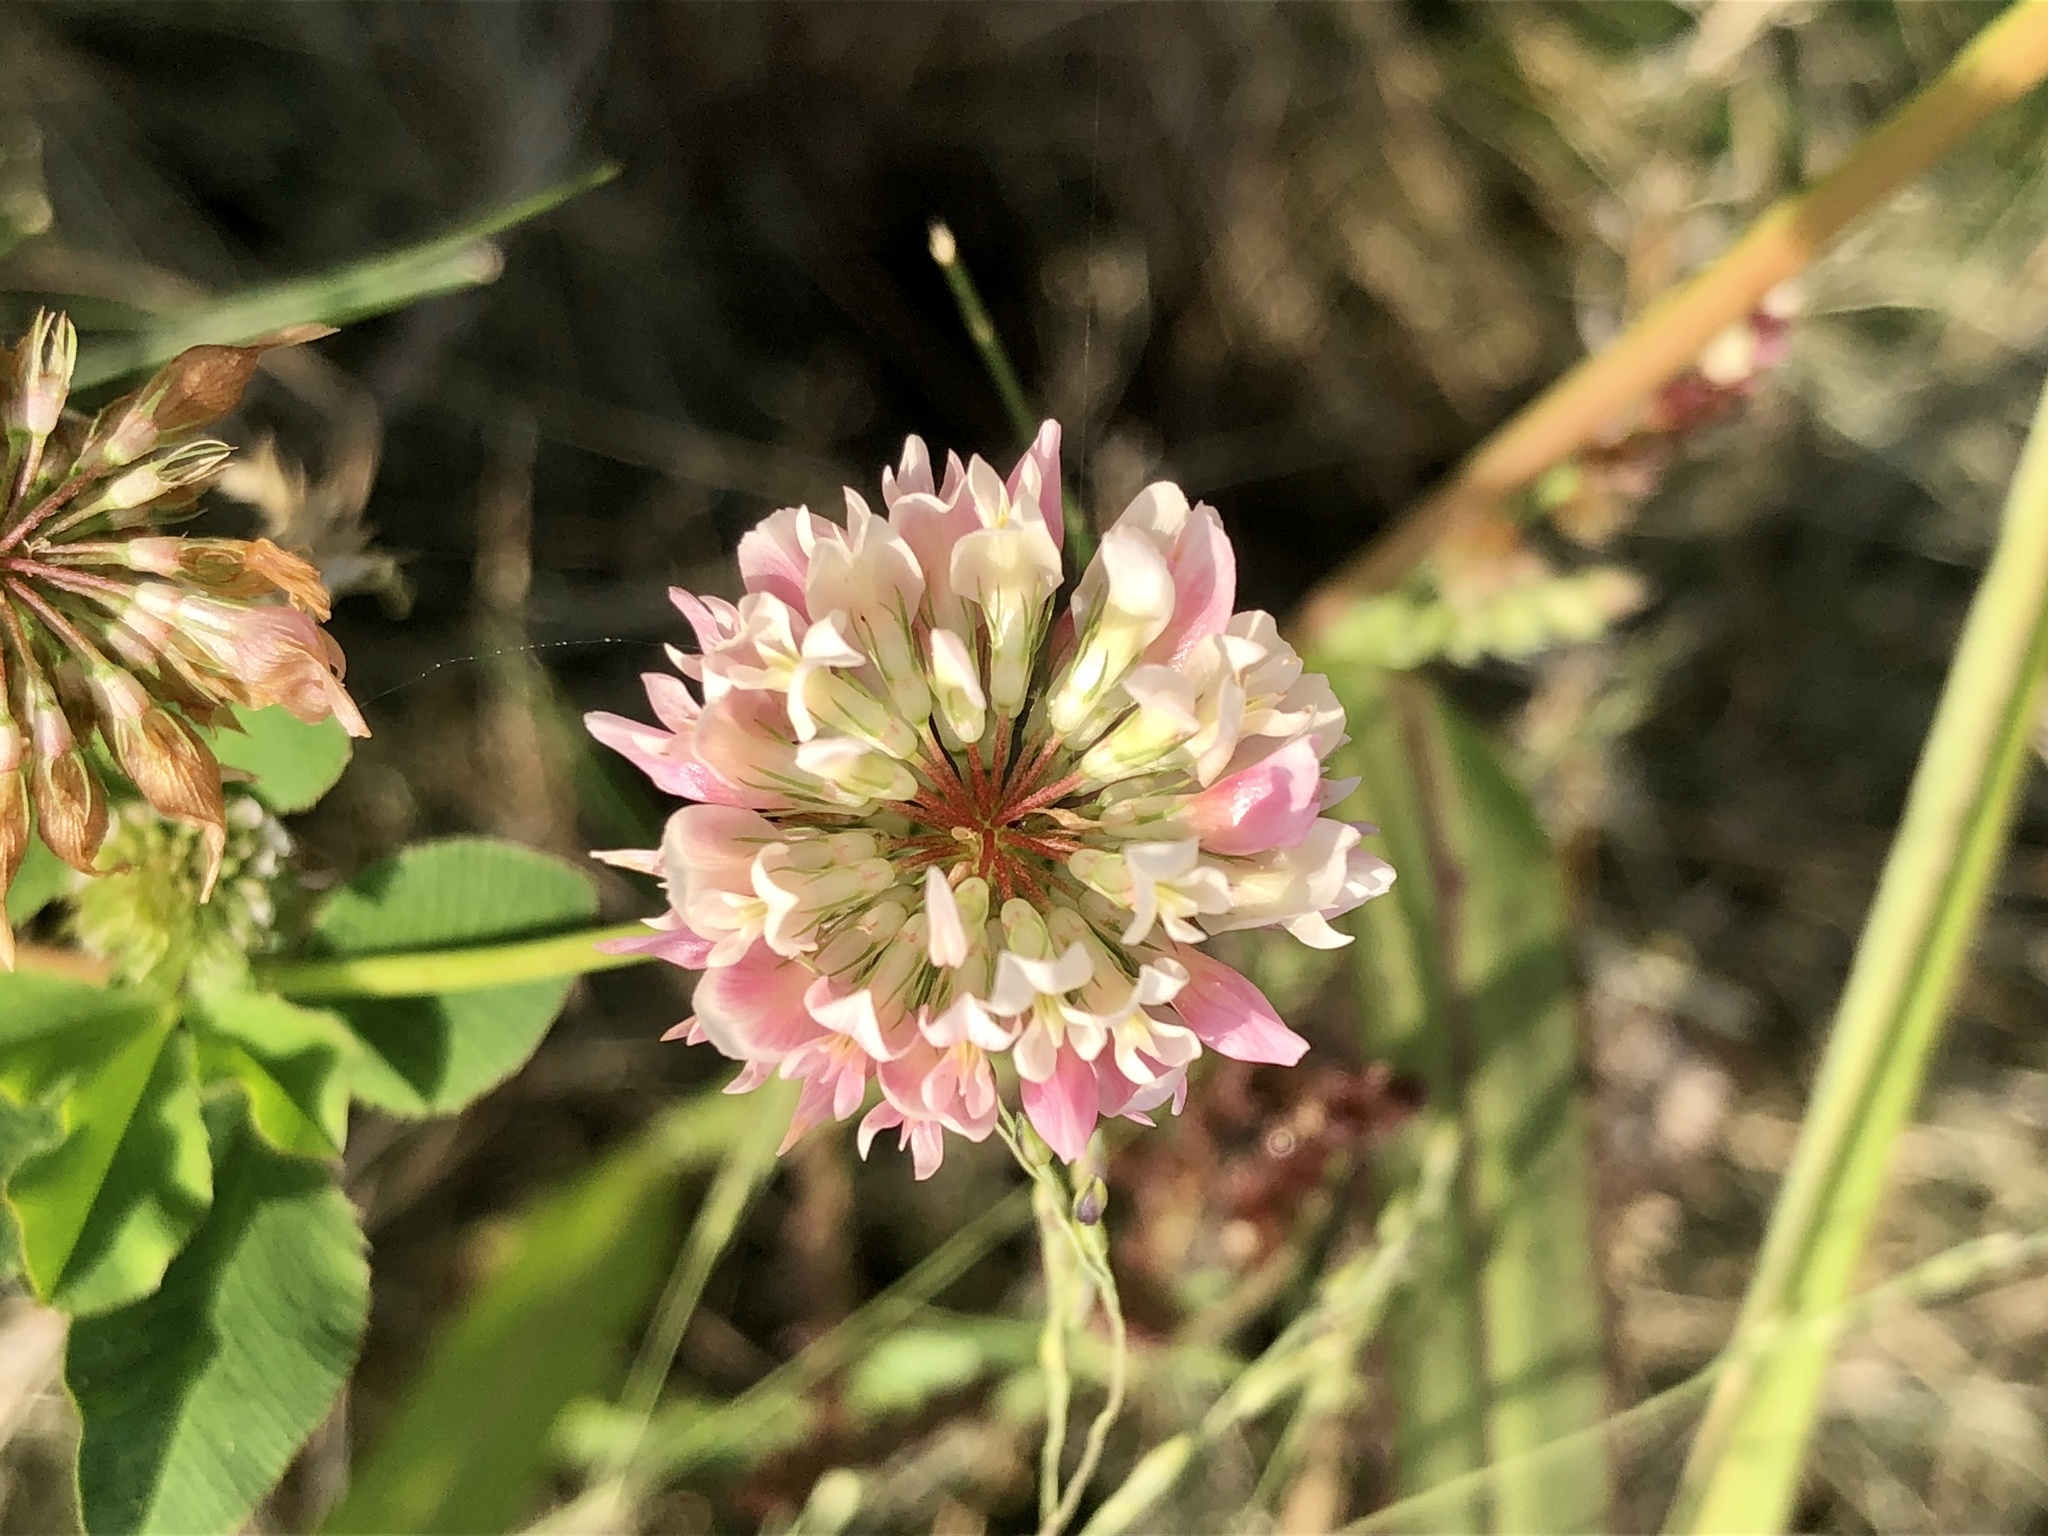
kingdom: Plantae
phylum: Tracheophyta
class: Magnoliopsida
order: Fabales
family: Fabaceae
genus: Trifolium
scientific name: Trifolium hybridum
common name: Alsike clover
